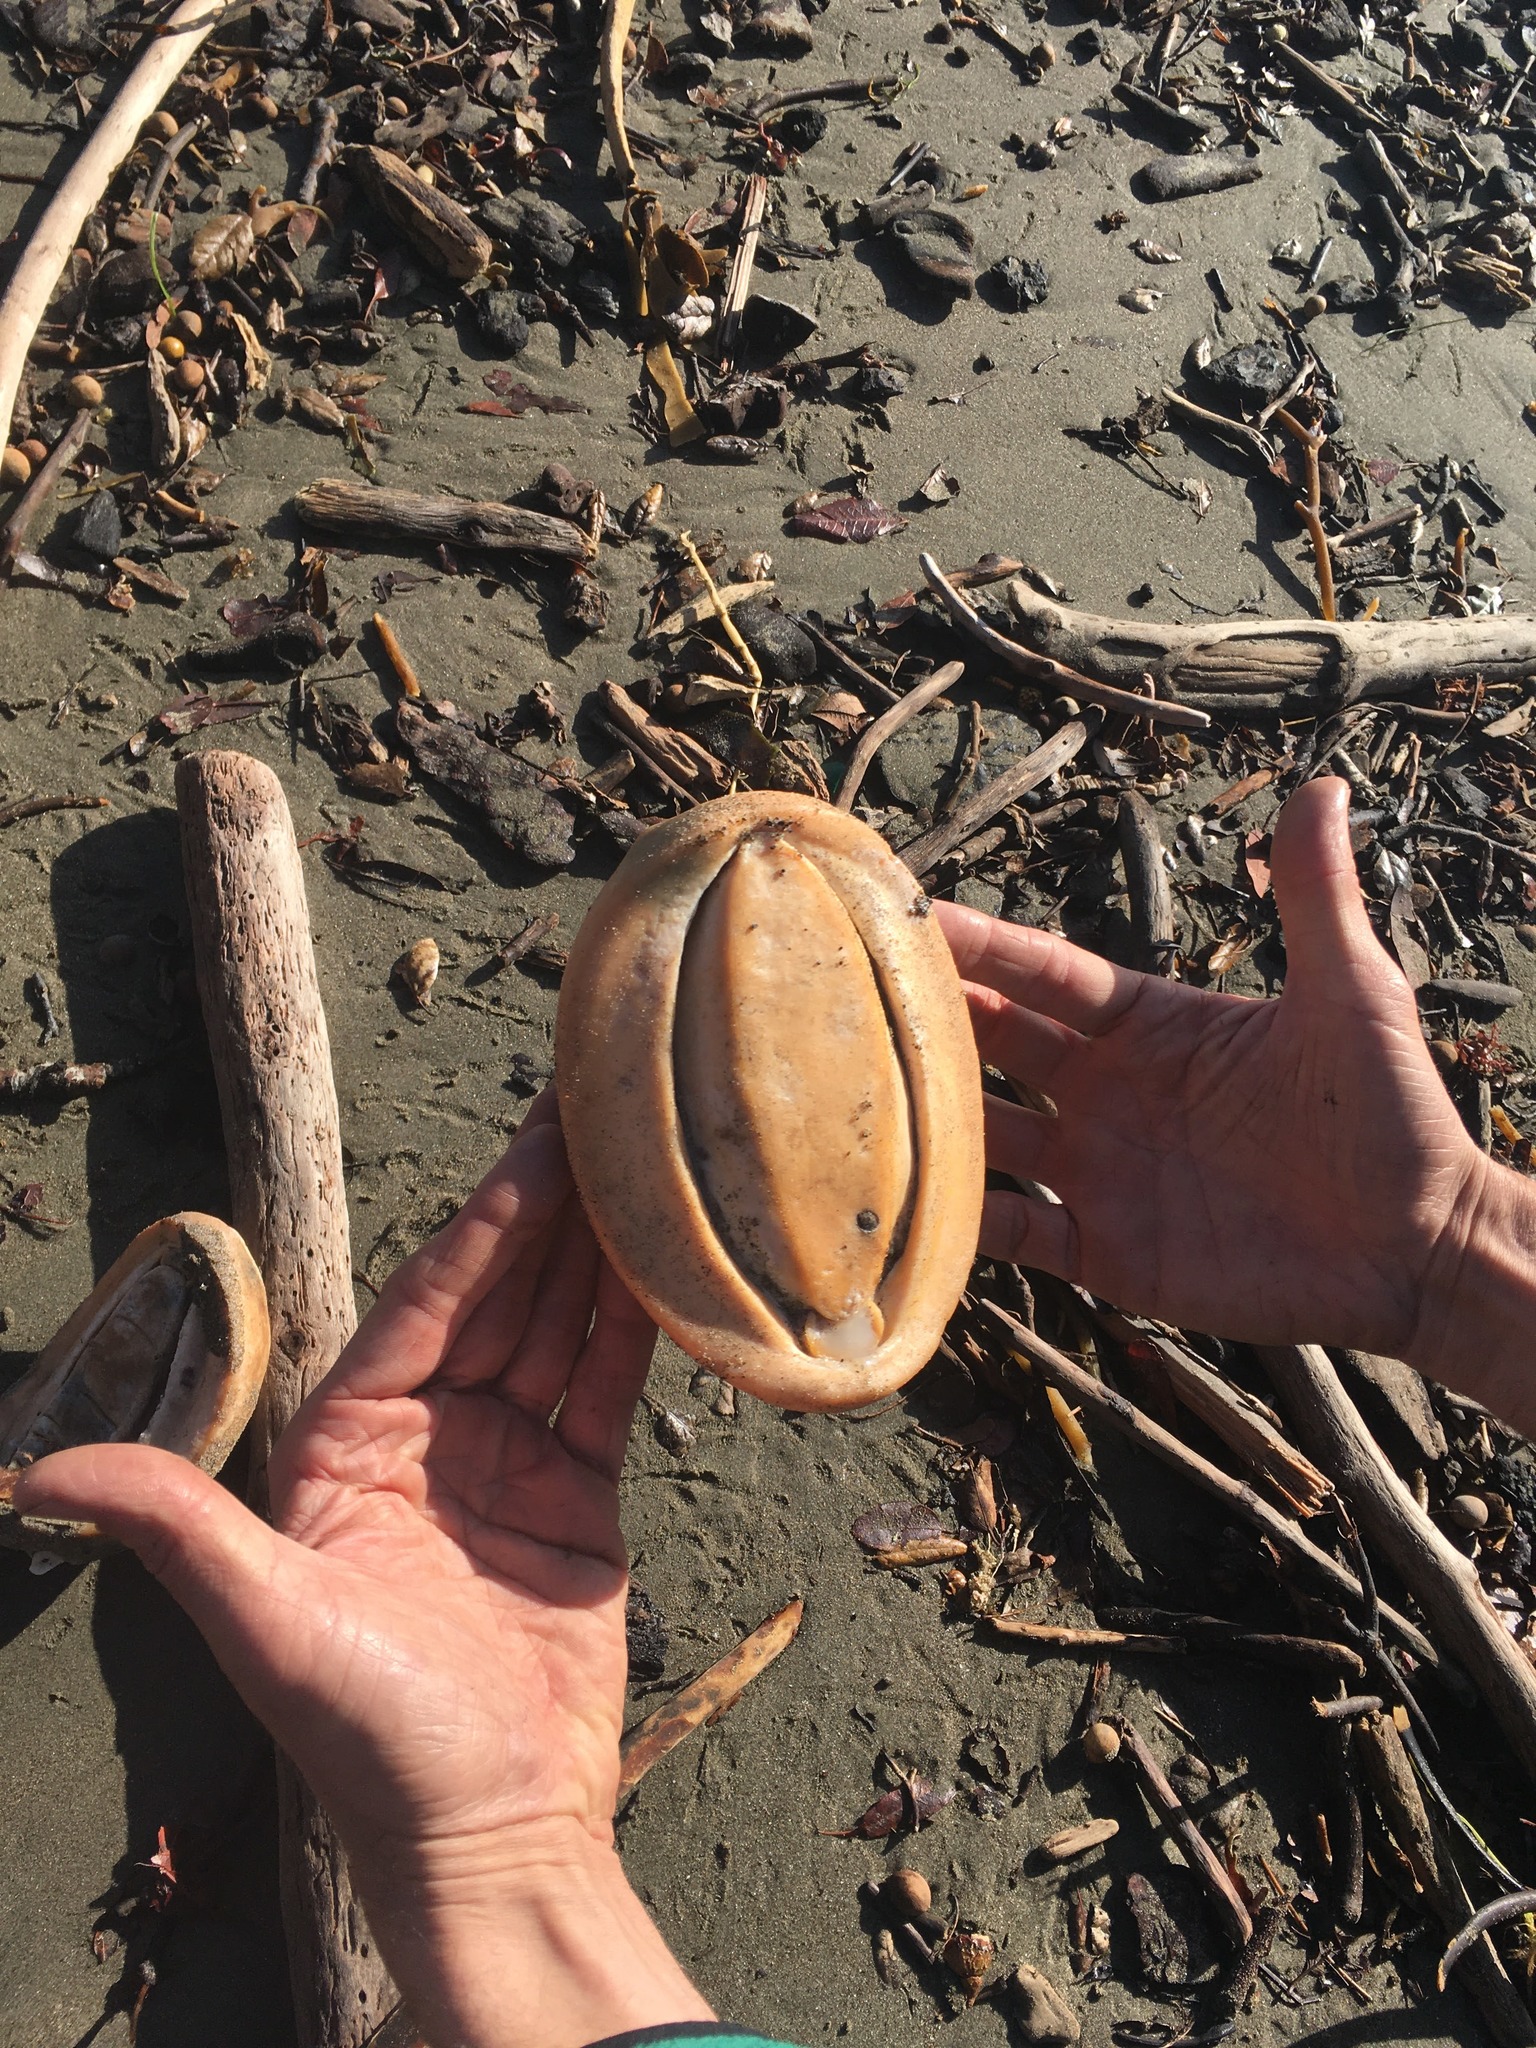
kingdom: Animalia
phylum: Mollusca
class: Polyplacophora
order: Chitonida
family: Acanthochitonidae
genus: Cryptochiton
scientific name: Cryptochiton stelleri
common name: Giant pacific chiton
